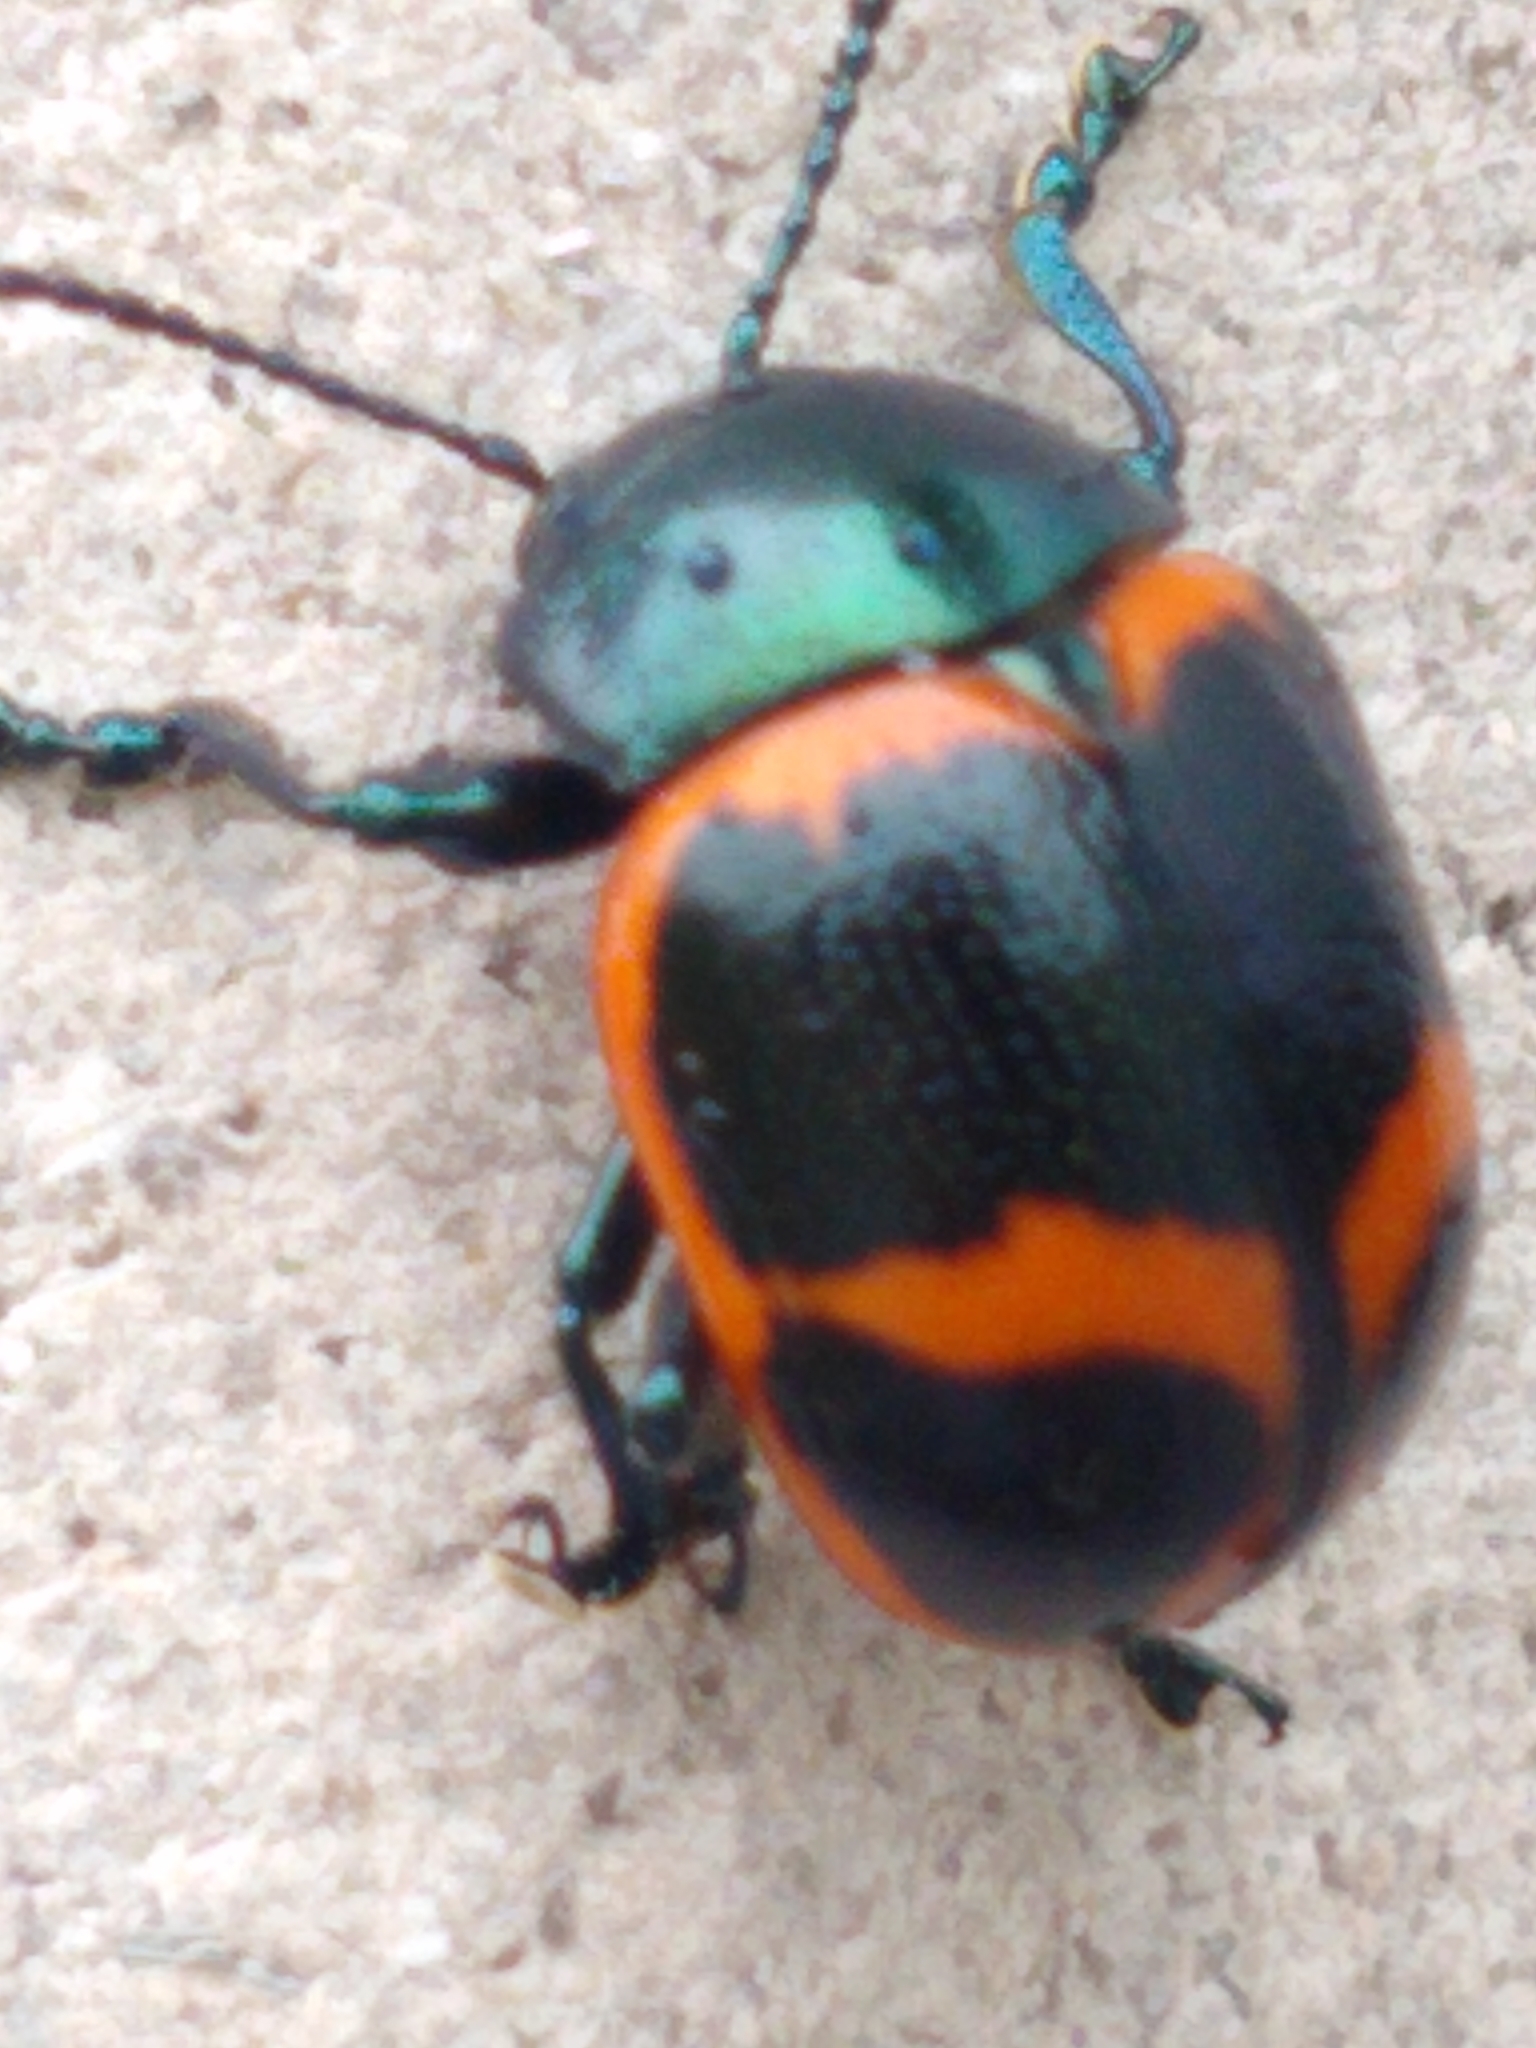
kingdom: Animalia
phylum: Arthropoda
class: Insecta
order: Coleoptera
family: Chrysomelidae
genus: Labidomera
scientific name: Labidomera clivicollis
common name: Swamp milkweed leaf beetle
